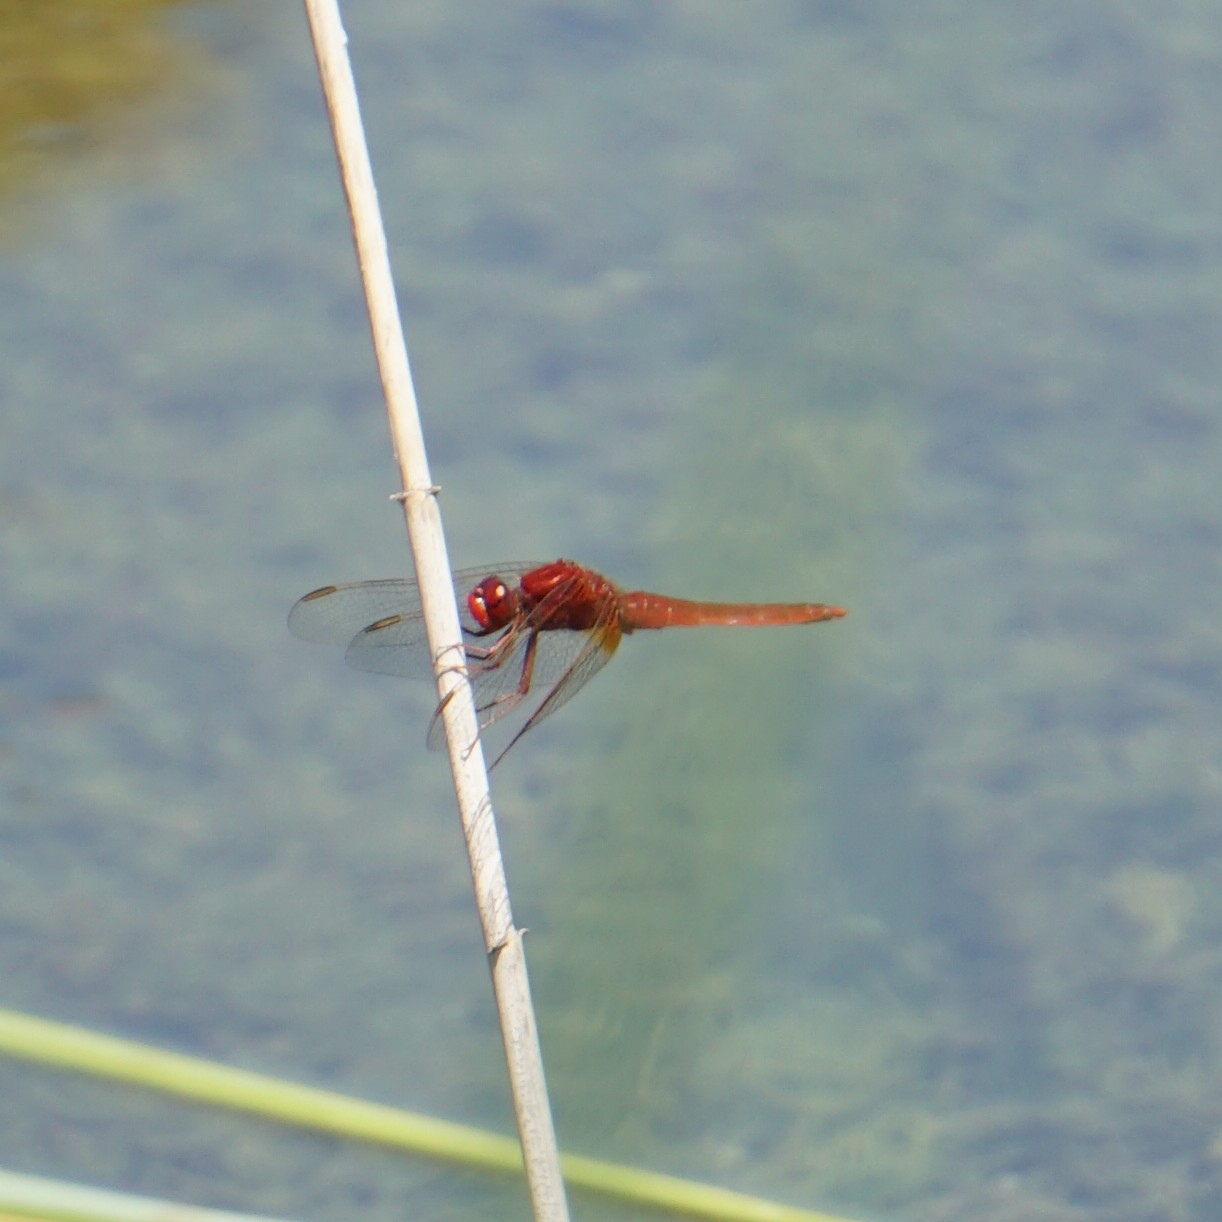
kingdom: Animalia
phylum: Arthropoda
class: Insecta
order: Odonata
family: Libellulidae
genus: Crocothemis
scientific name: Crocothemis erythraea
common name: Scarlet dragonfly
